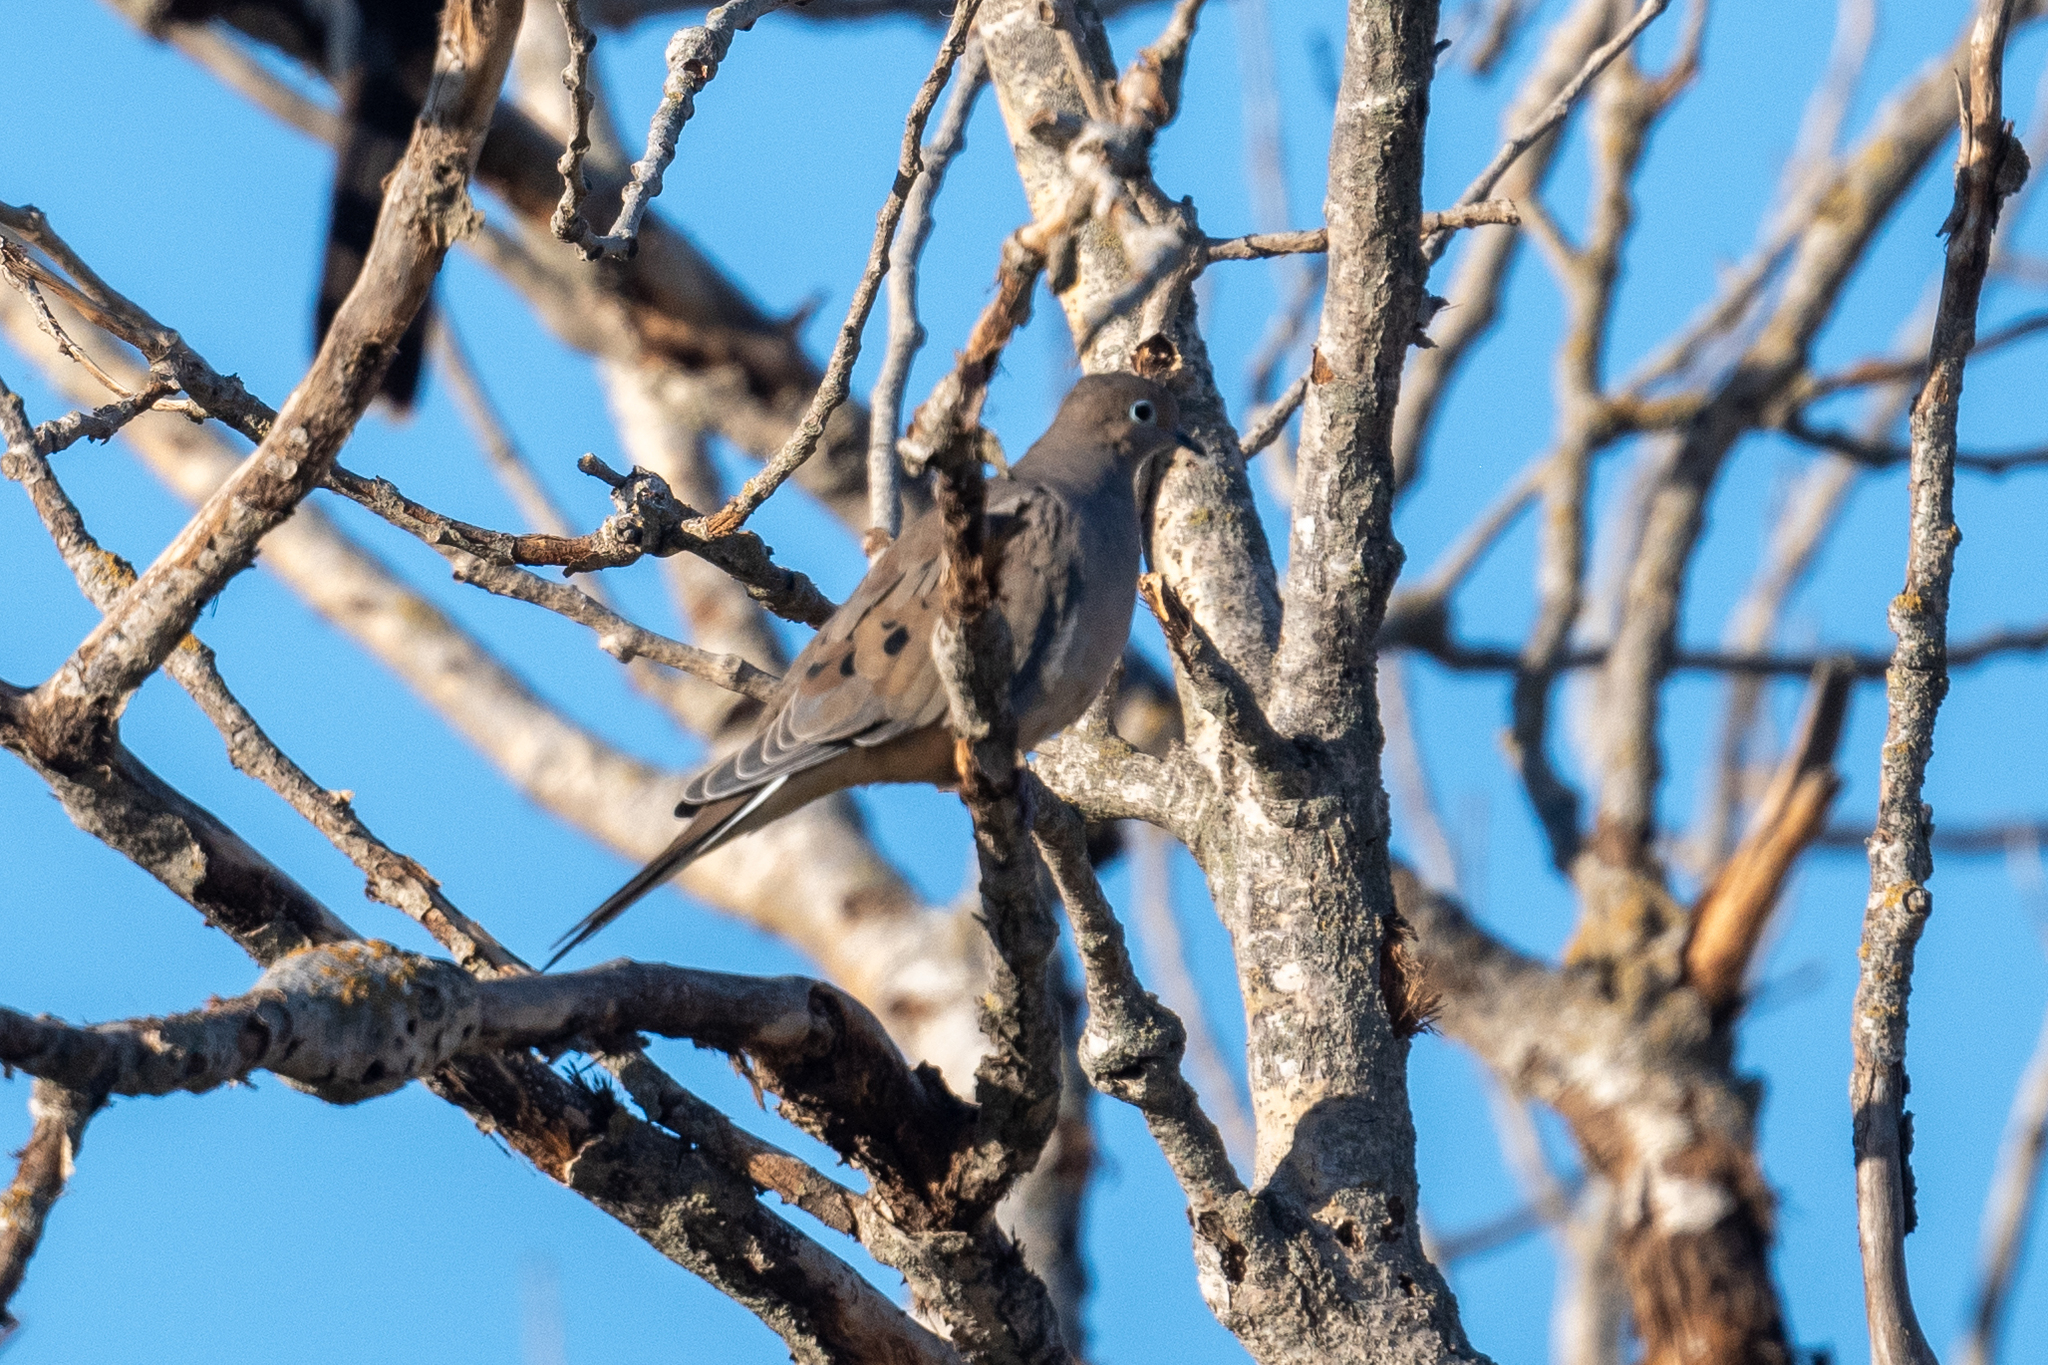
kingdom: Animalia
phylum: Chordata
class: Aves
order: Columbiformes
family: Columbidae
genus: Zenaida
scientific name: Zenaida macroura
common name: Mourning dove
